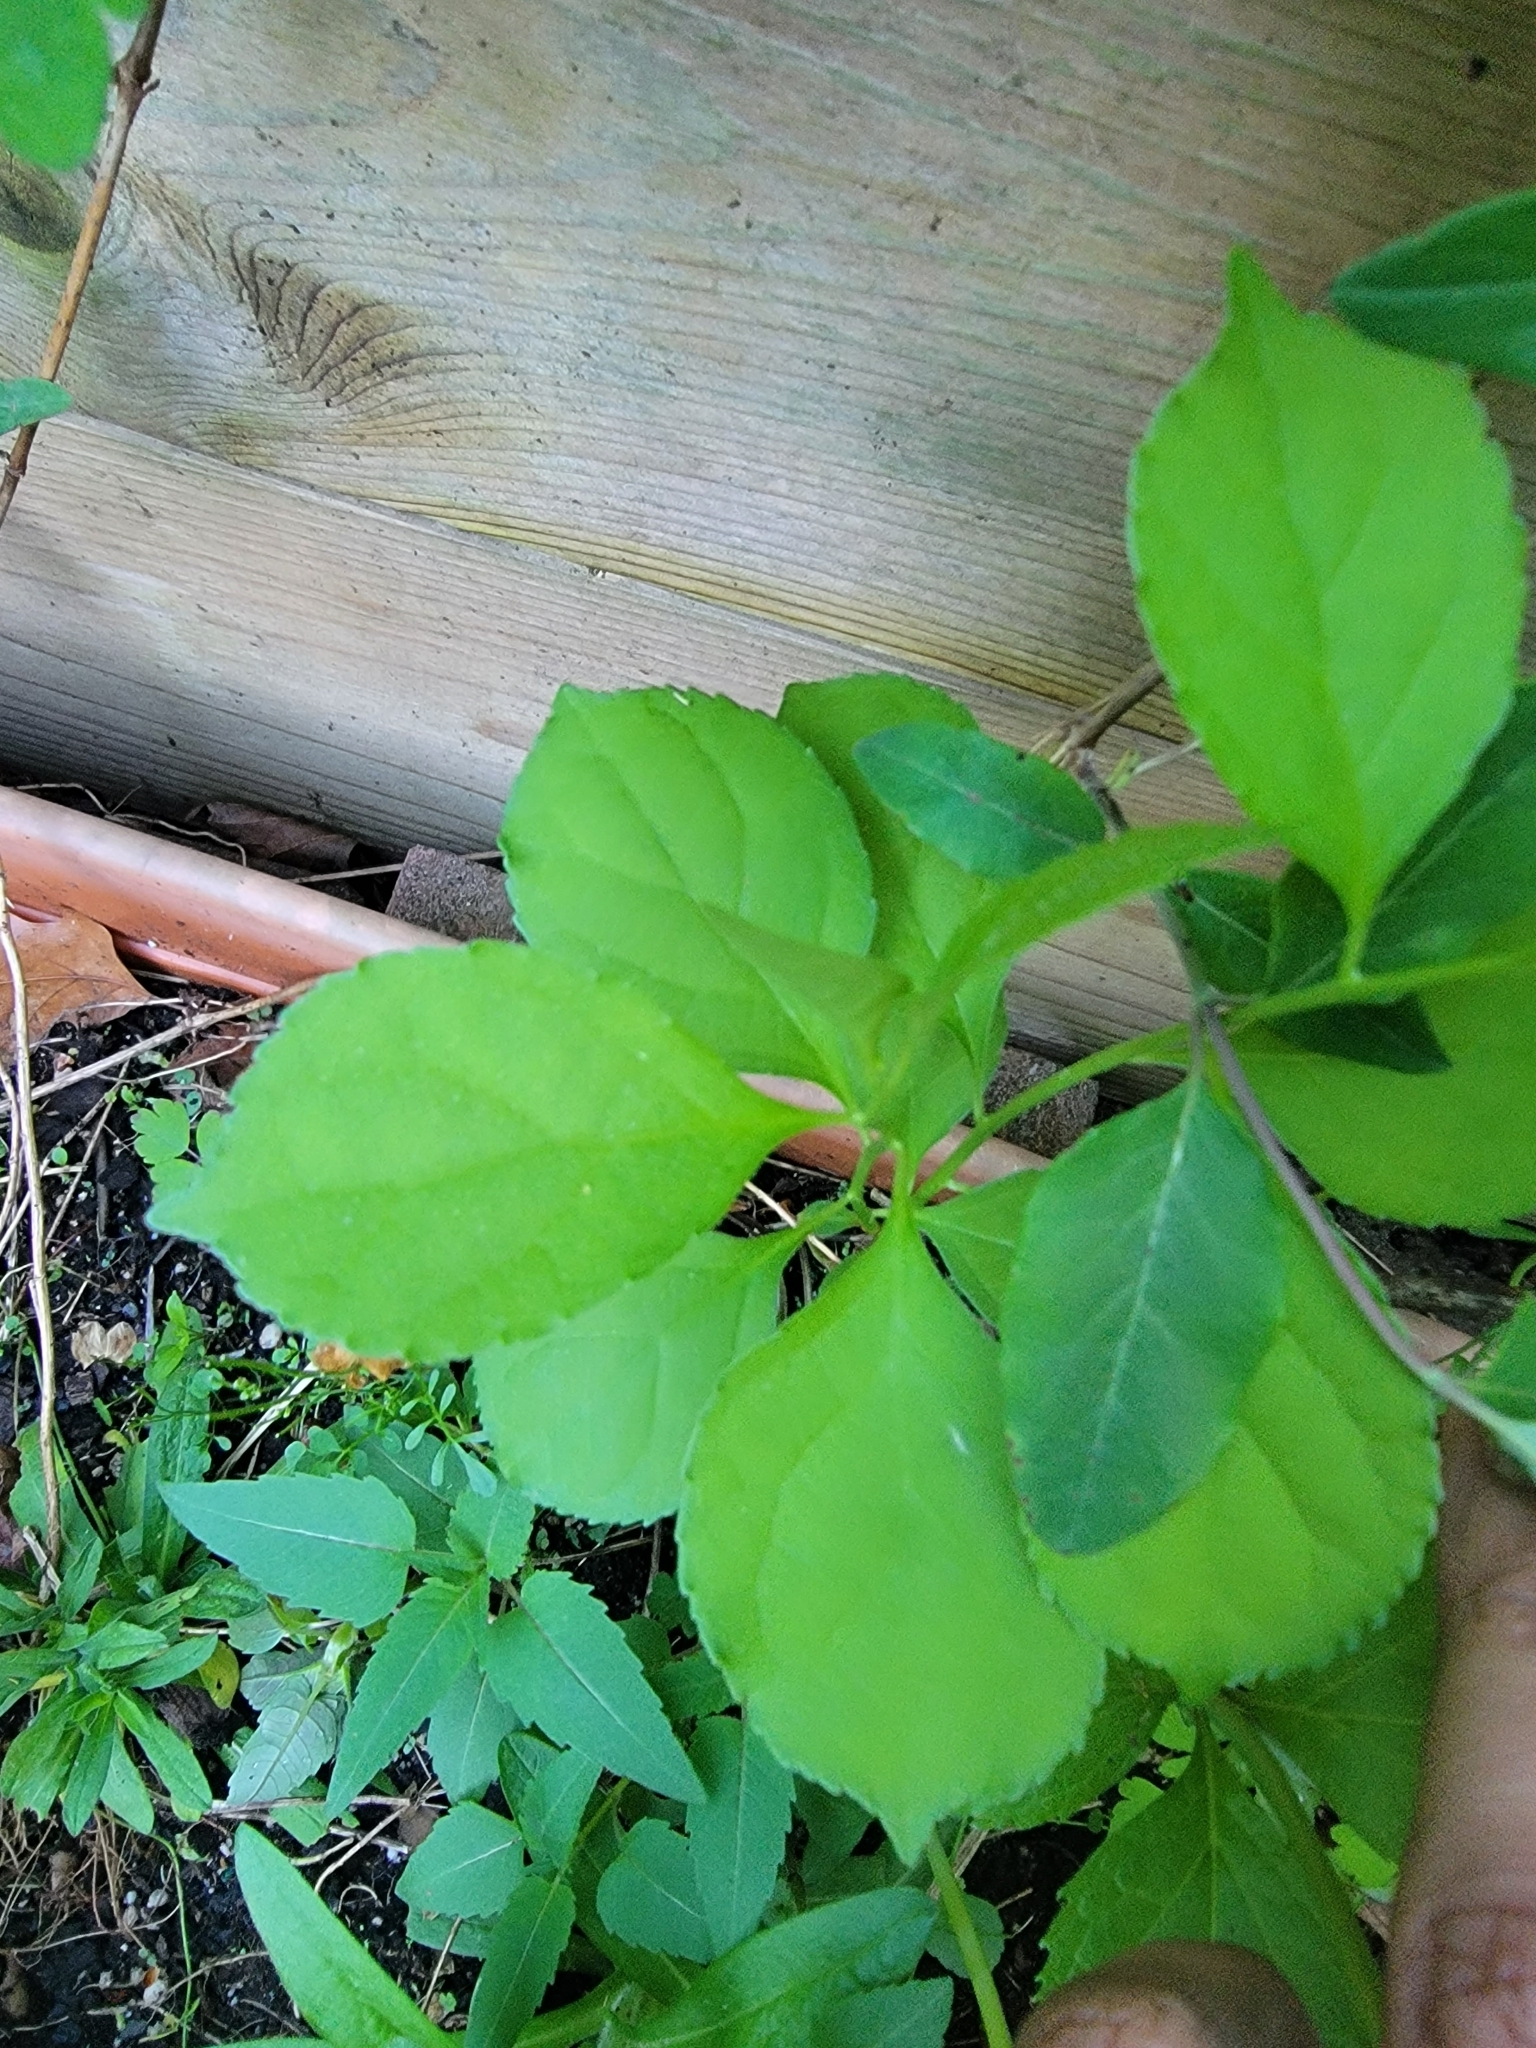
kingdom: Plantae
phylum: Tracheophyta
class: Magnoliopsida
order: Celastrales
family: Celastraceae
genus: Celastrus
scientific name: Celastrus orbiculatus
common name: Oriental bittersweet
